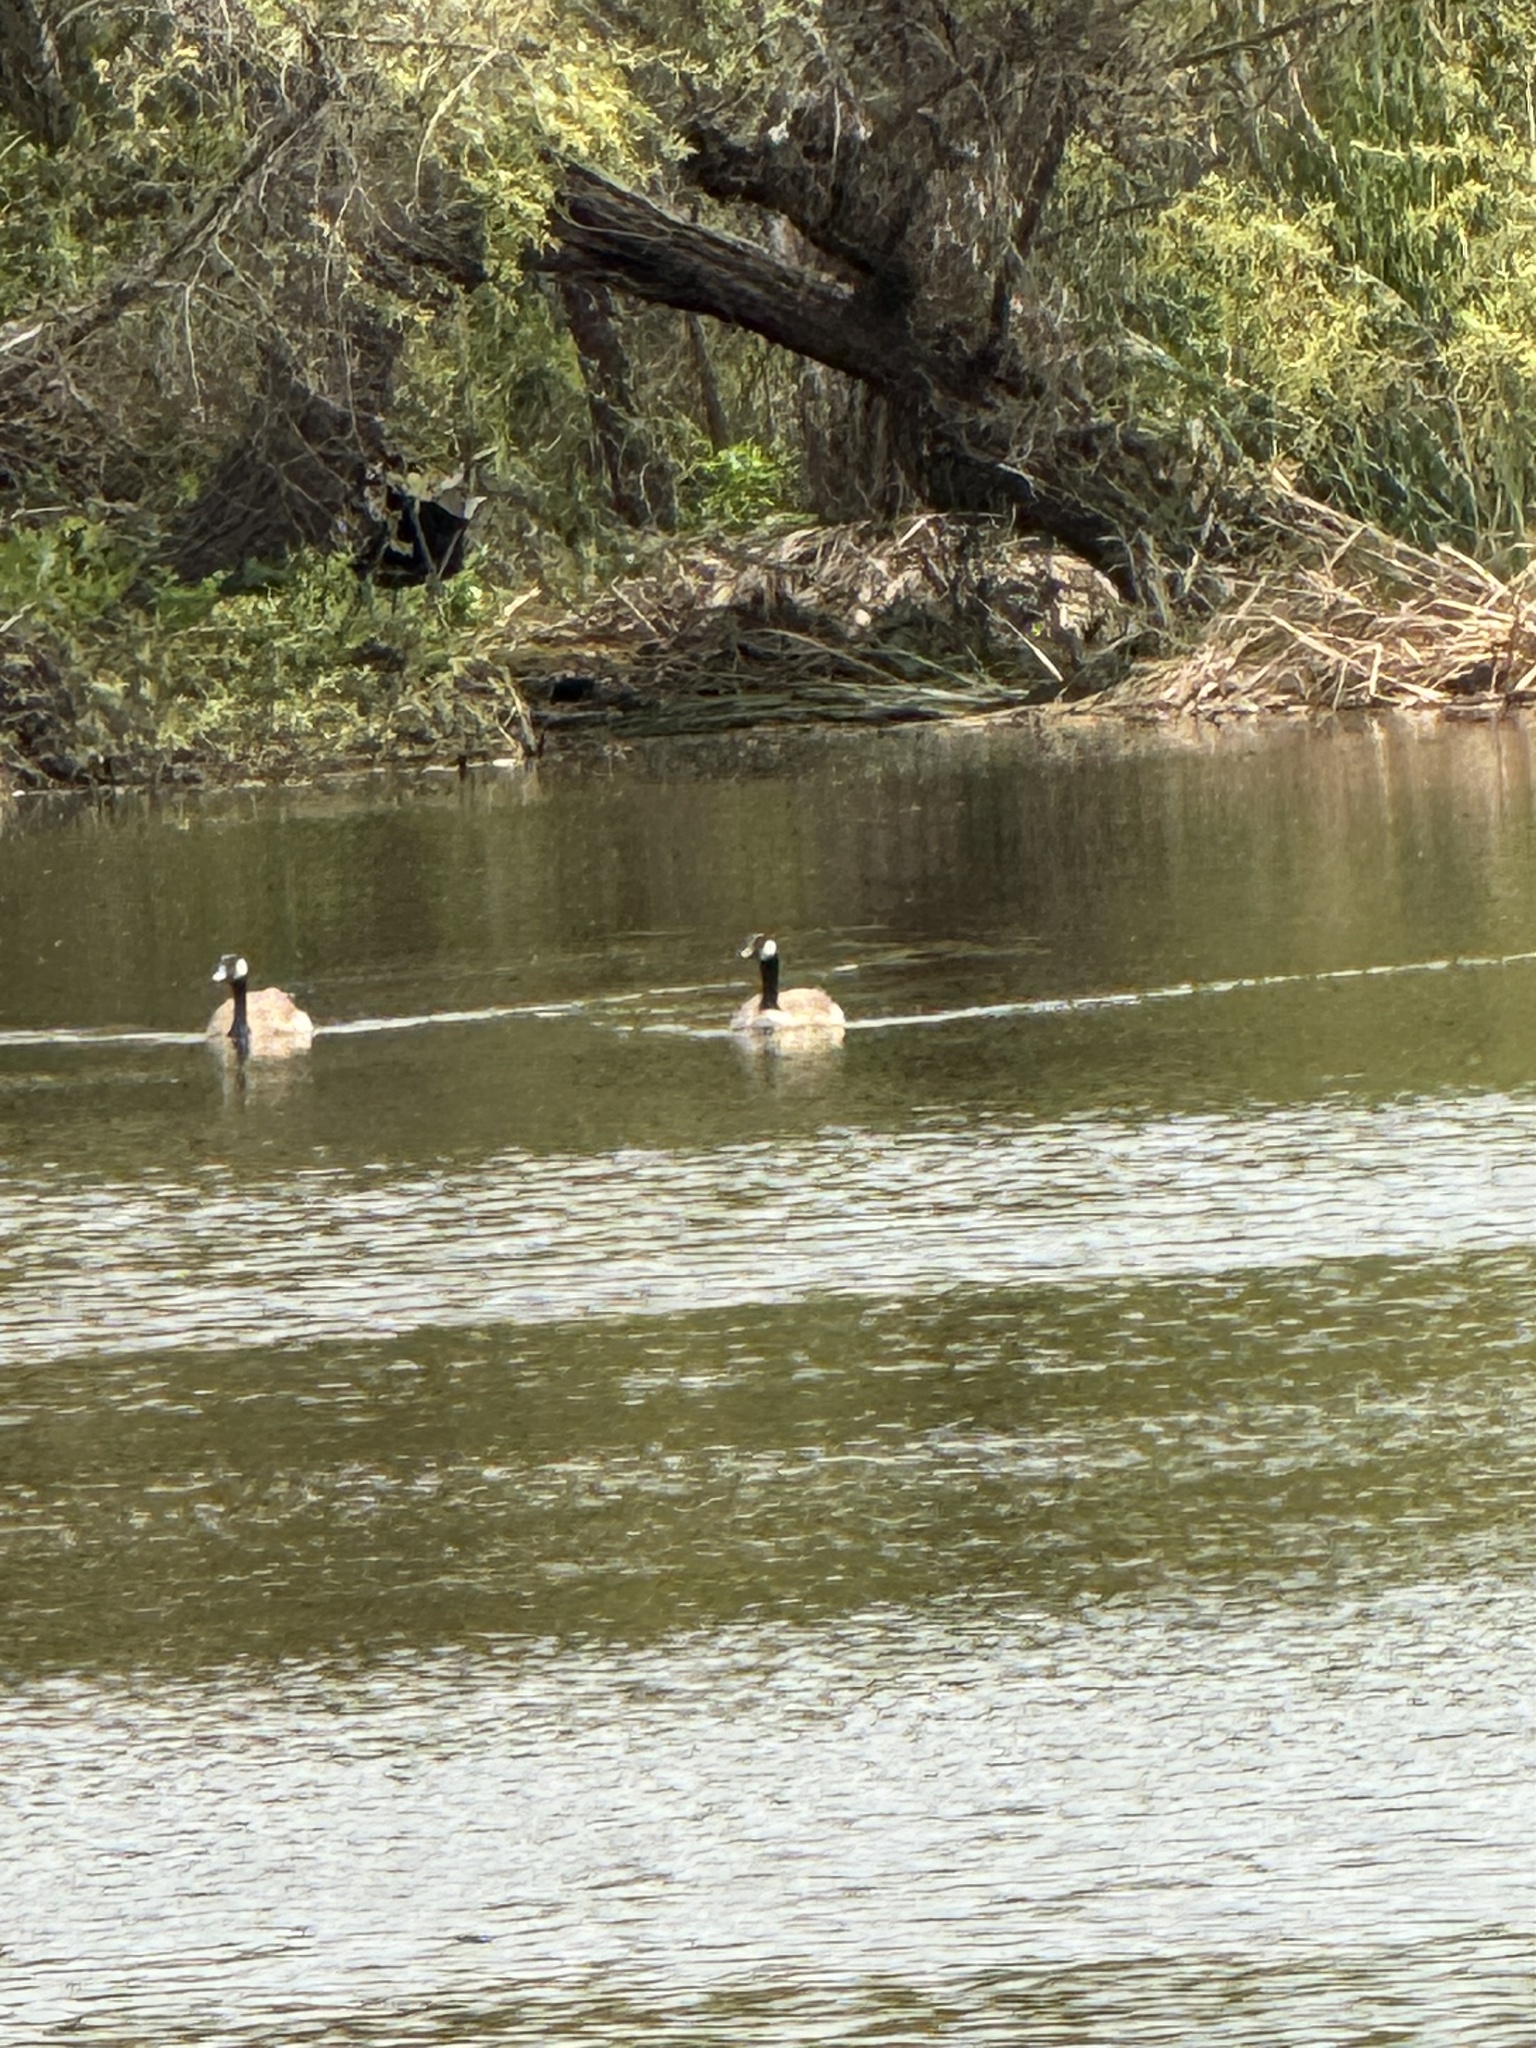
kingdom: Animalia
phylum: Chordata
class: Aves
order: Anseriformes
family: Anatidae
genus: Branta
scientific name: Branta canadensis
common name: Canada goose
